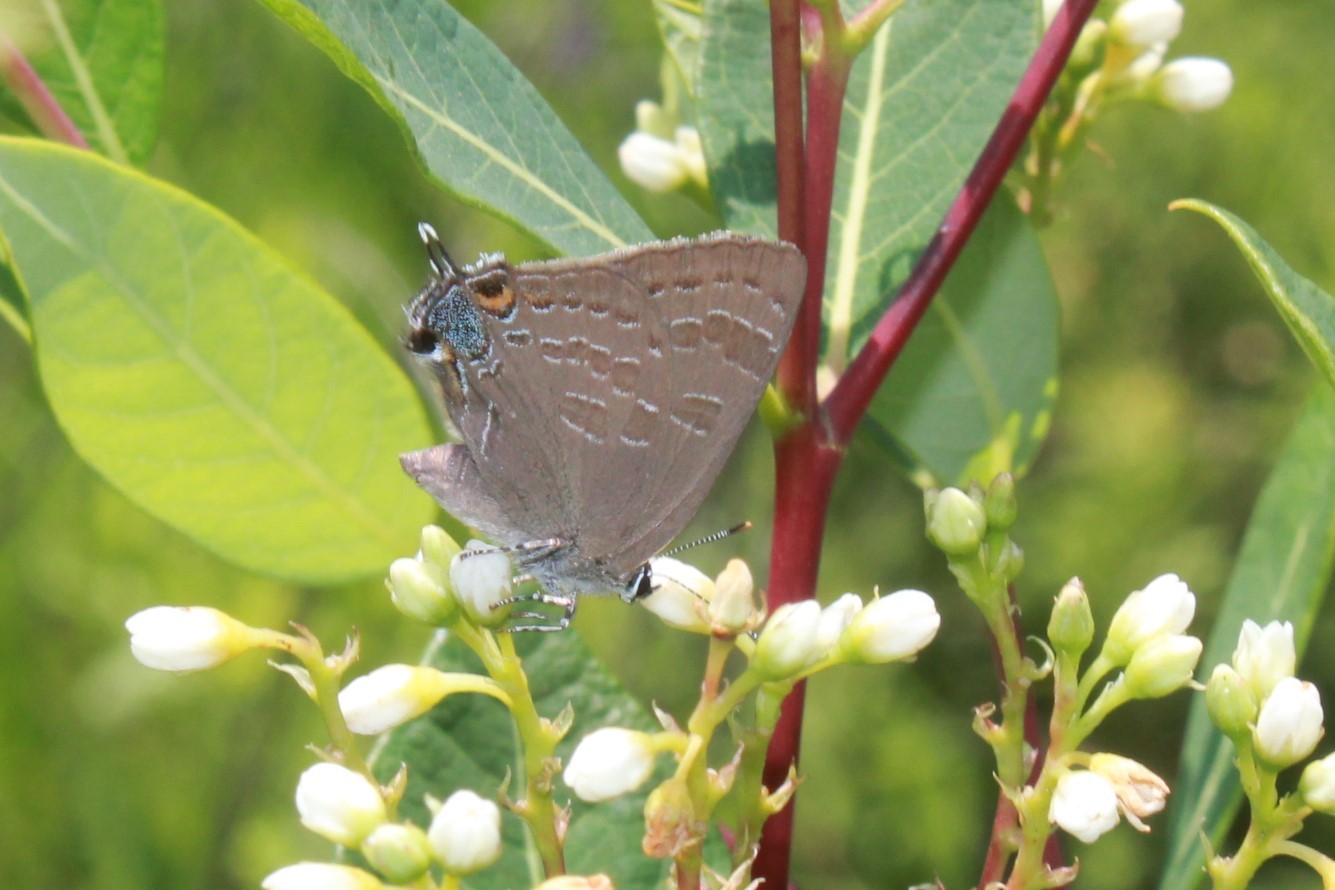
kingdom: Animalia
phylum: Arthropoda
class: Insecta
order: Lepidoptera
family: Lycaenidae
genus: Strymon
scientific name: Strymon caryaevorus
